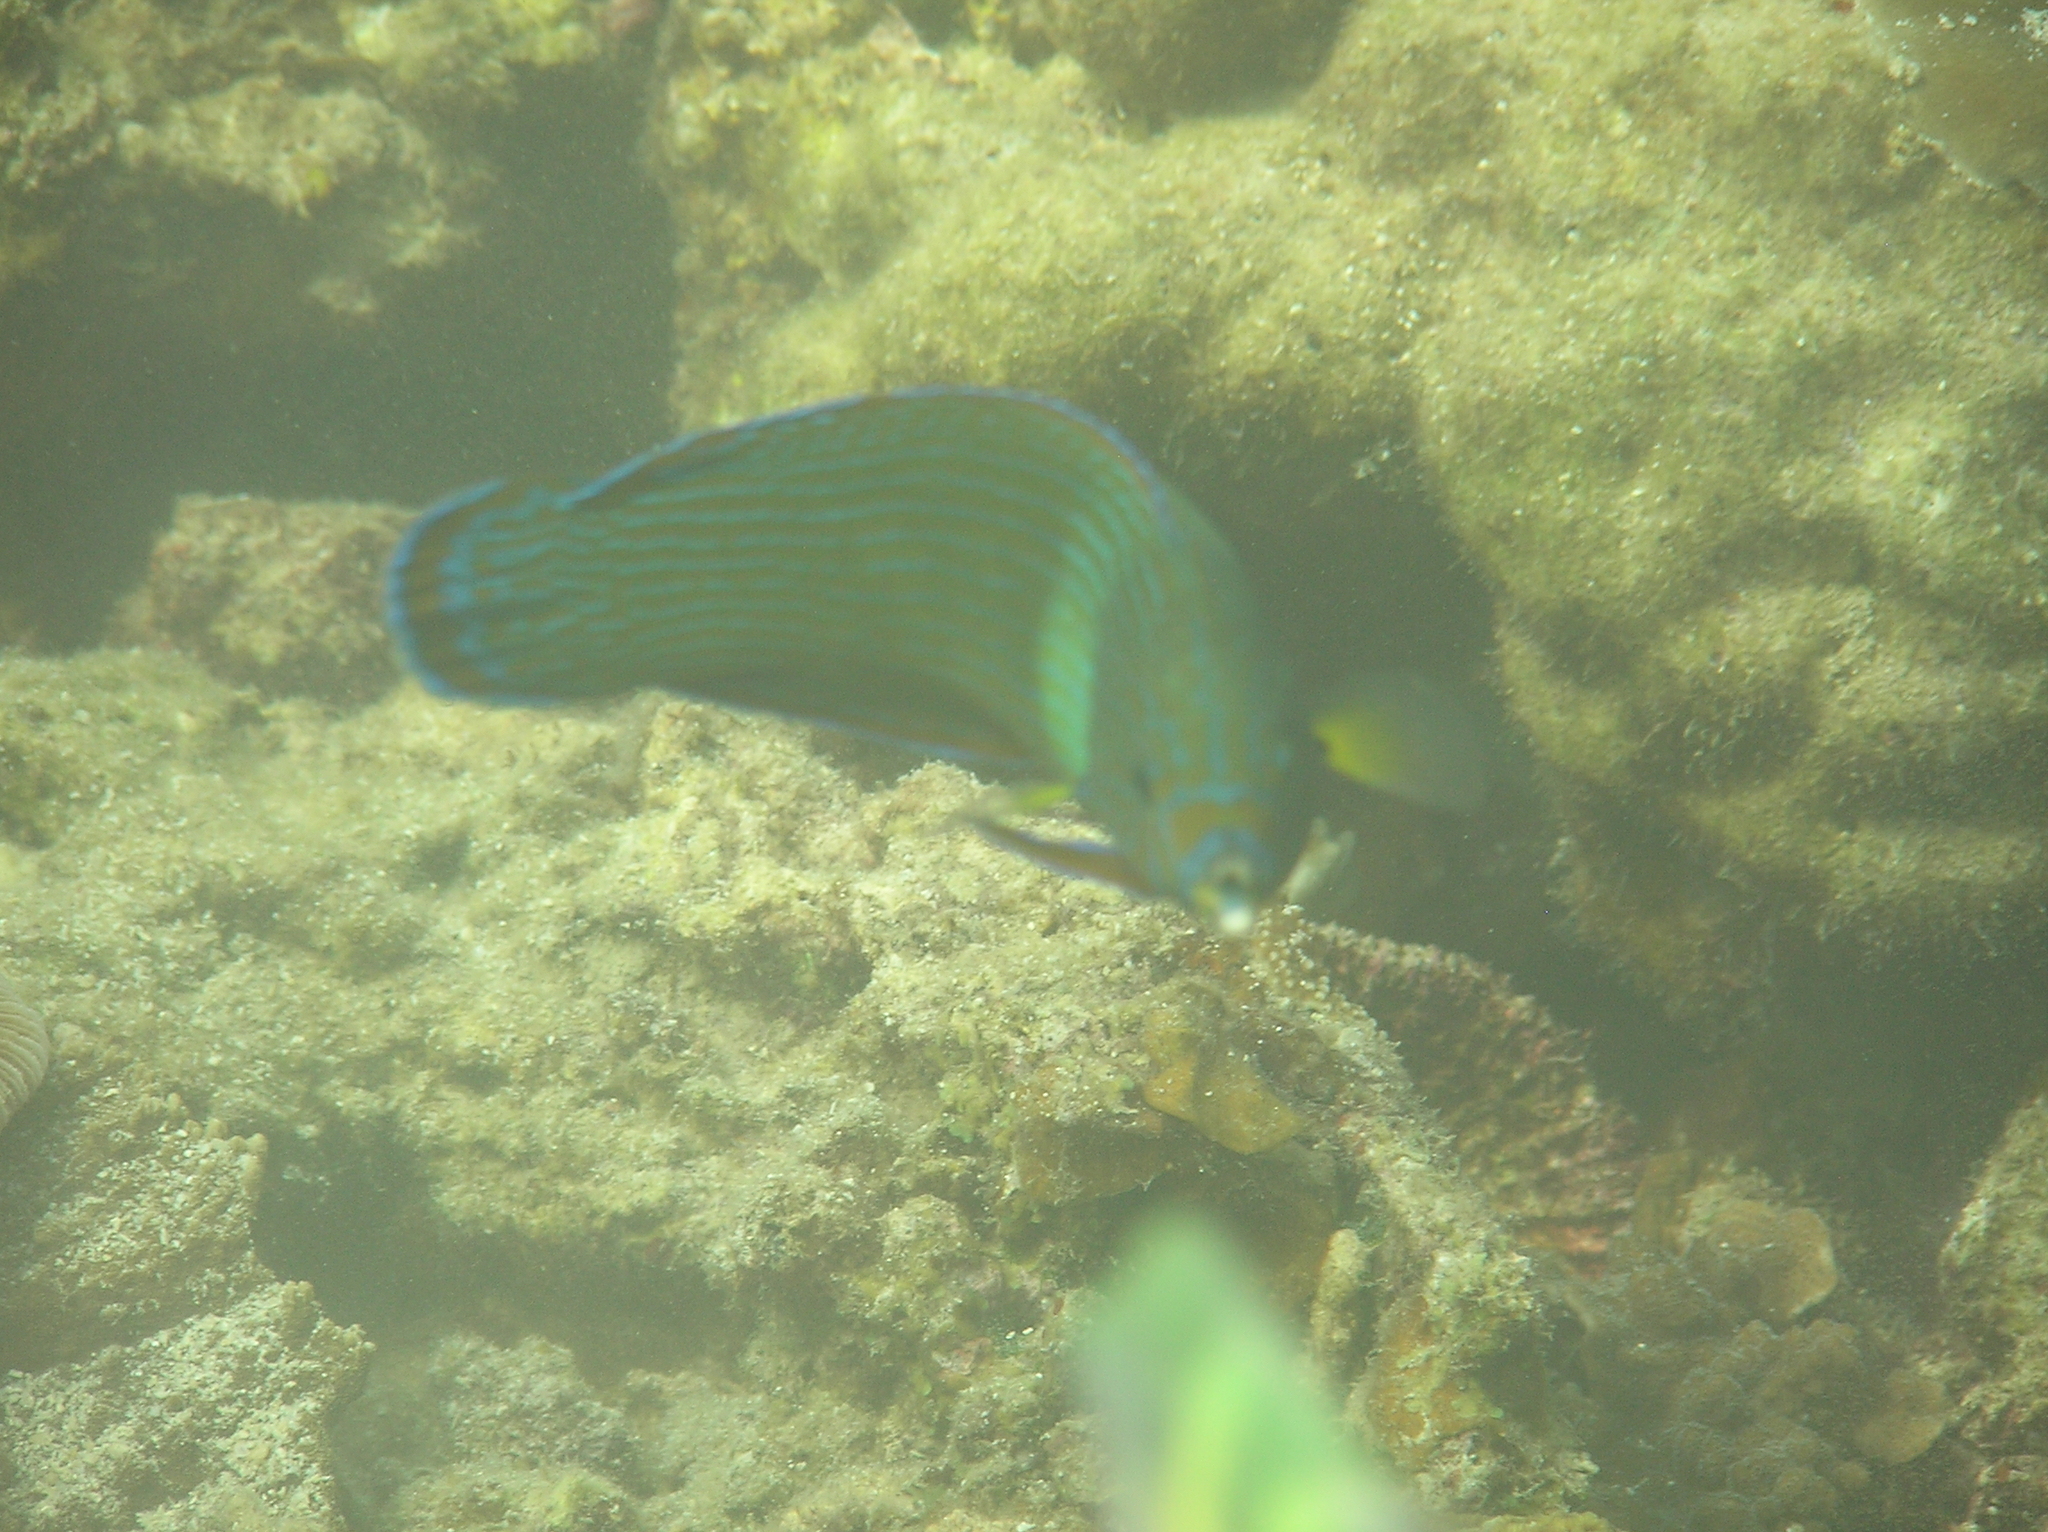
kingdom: Animalia
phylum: Chordata
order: Perciformes
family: Labridae
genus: Labrichthys
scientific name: Labrichthys unilineatus
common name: Onelined wrasse
